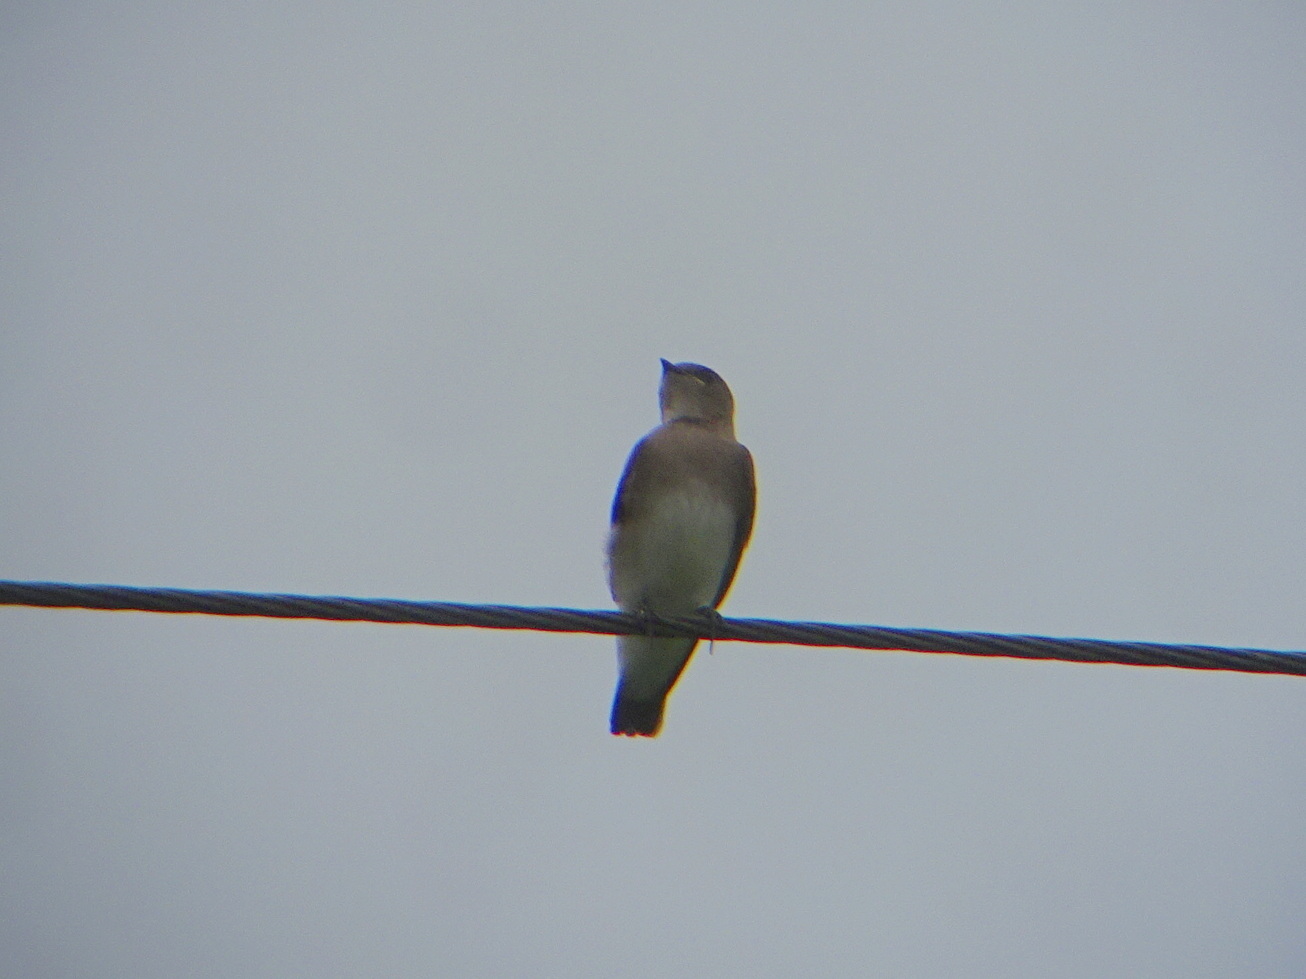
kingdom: Animalia
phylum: Chordata
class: Aves
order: Passeriformes
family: Hirundinidae
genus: Stelgidopteryx
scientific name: Stelgidopteryx serripennis
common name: Northern rough-winged swallow
